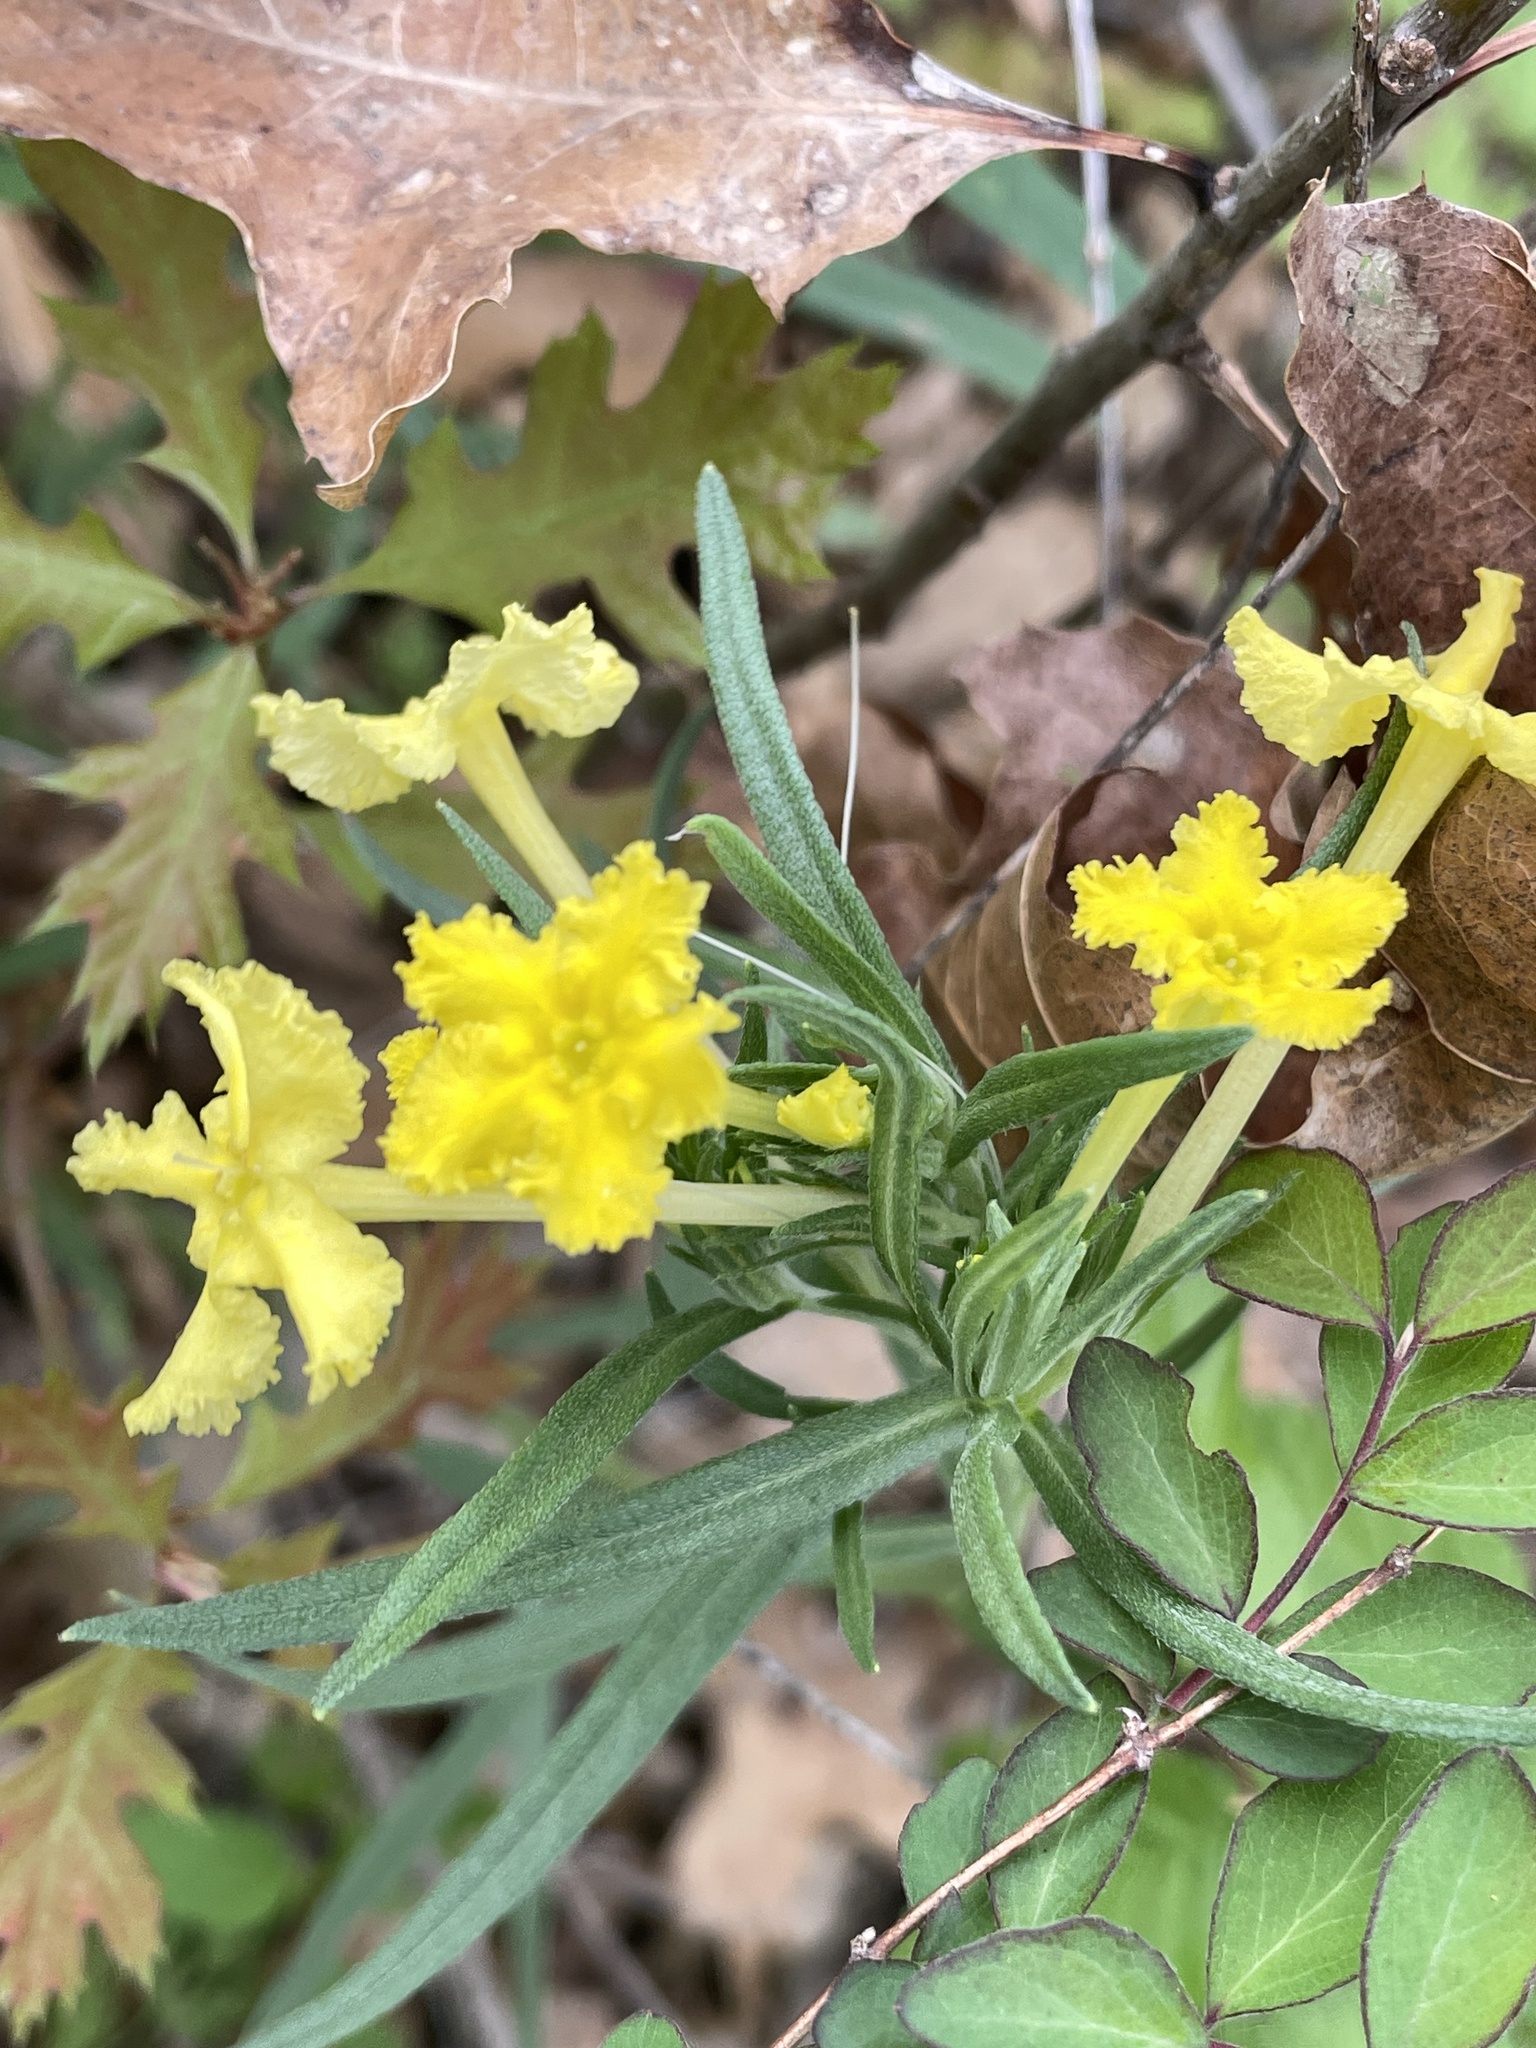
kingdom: Plantae
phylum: Tracheophyta
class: Magnoliopsida
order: Boraginales
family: Boraginaceae
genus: Lithospermum
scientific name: Lithospermum incisum
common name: Fringed gromwell
